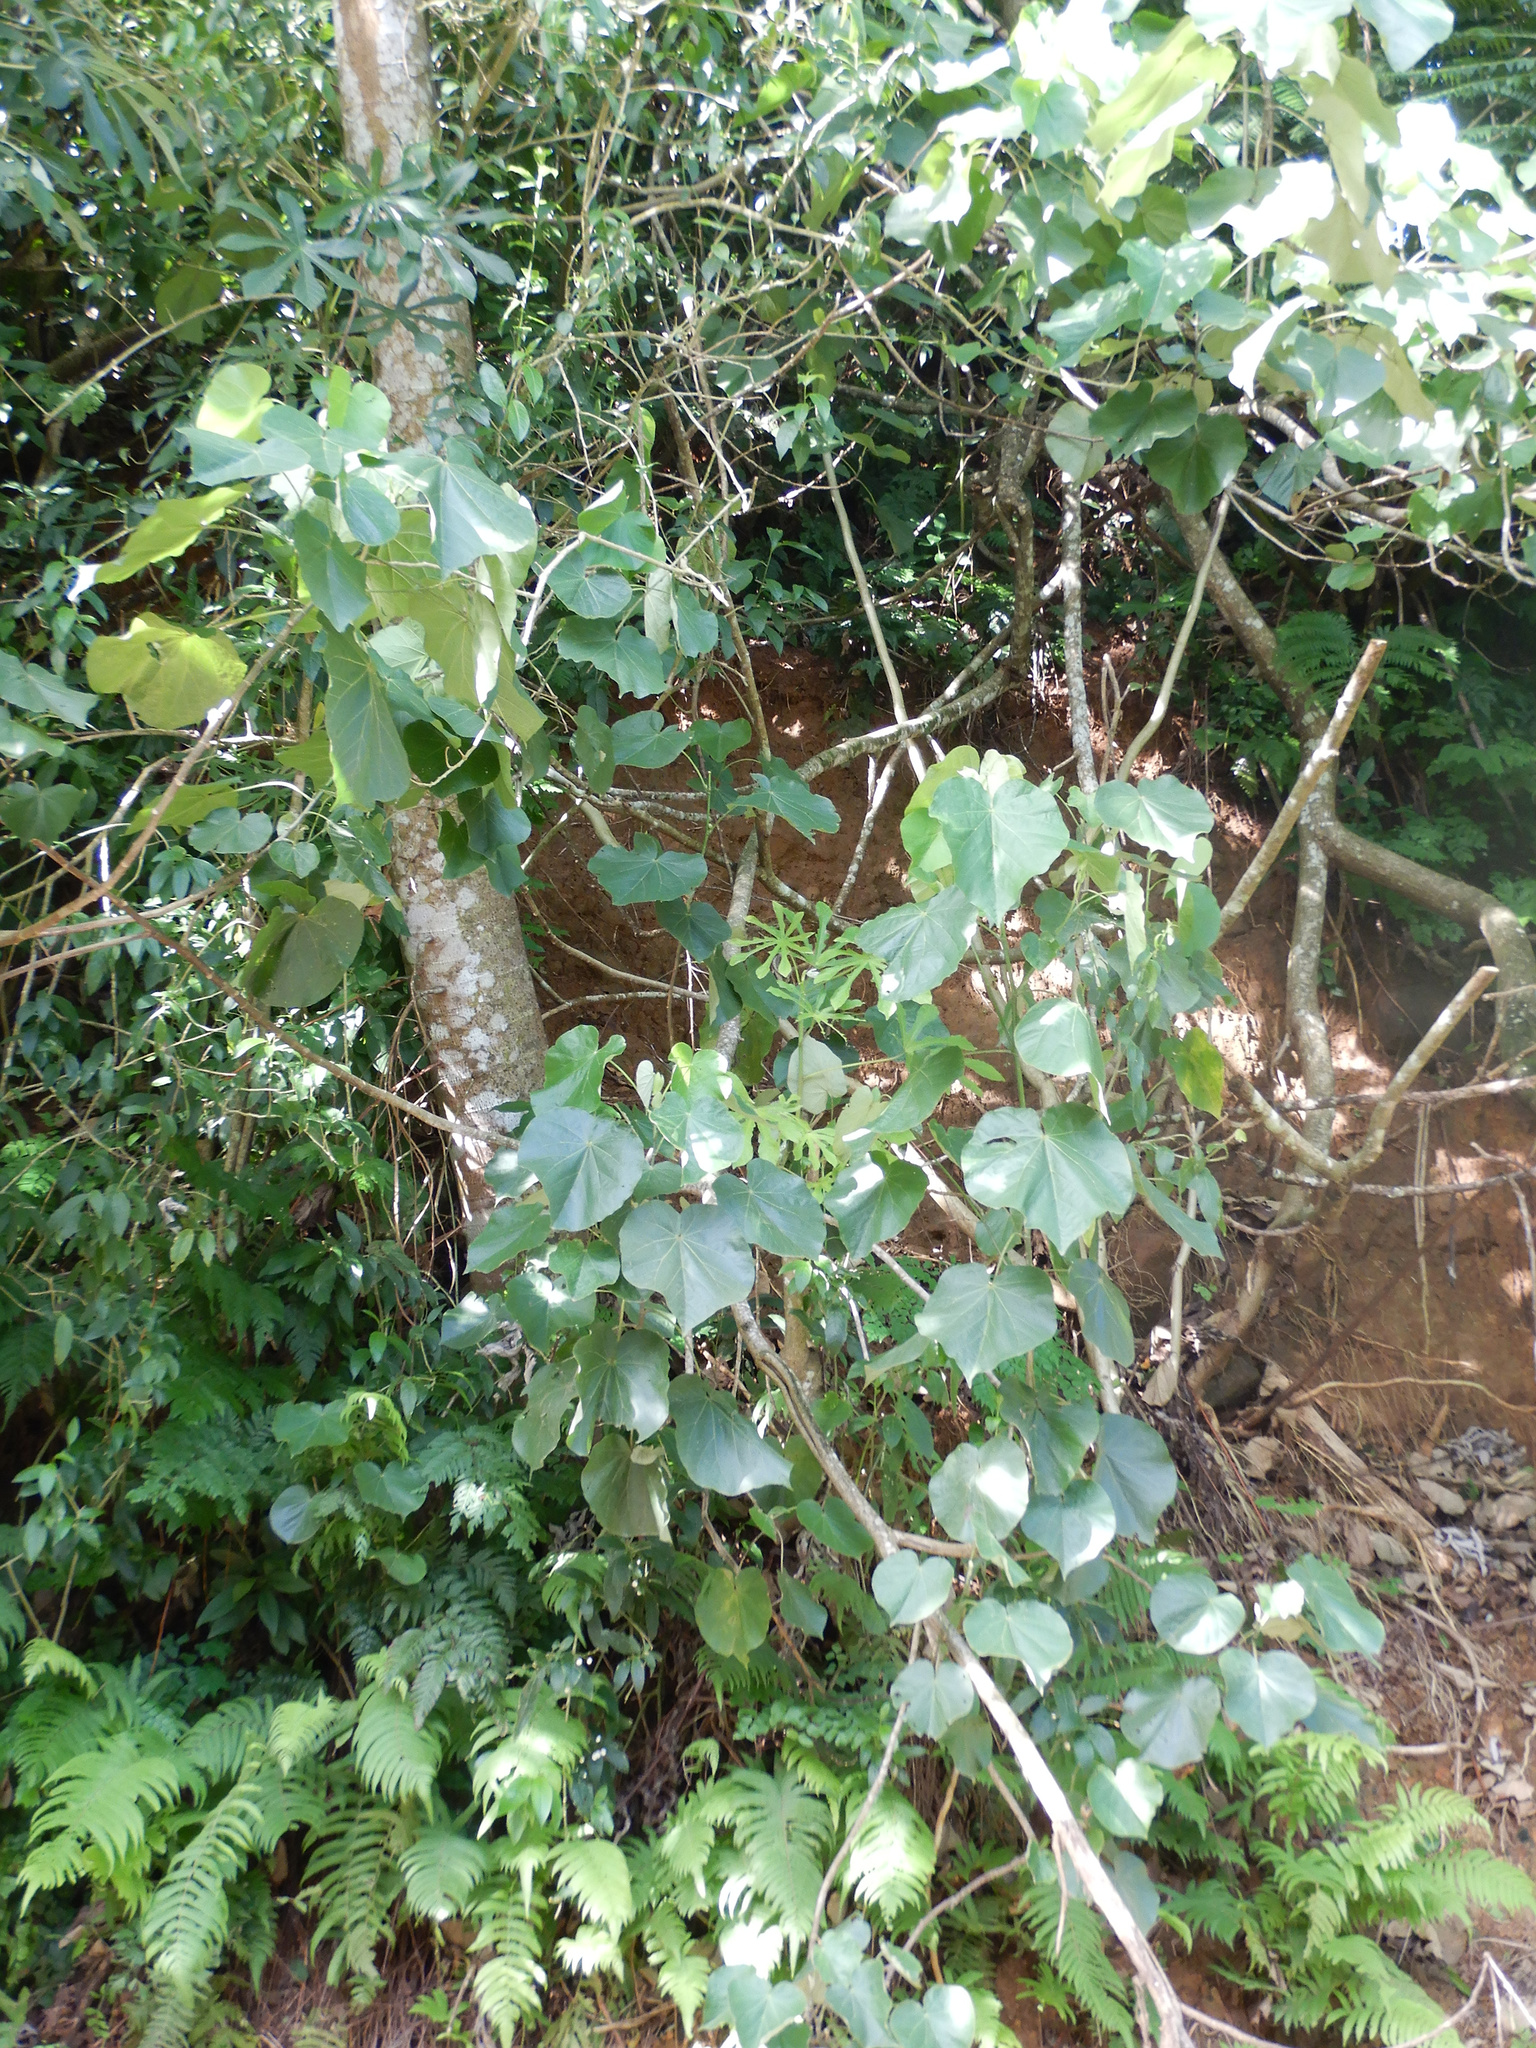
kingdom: Plantae
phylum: Tracheophyta
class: Magnoliopsida
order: Malvales
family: Malvaceae
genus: Talipariti
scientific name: Talipariti tiliaceum
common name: Sea hibiscus
